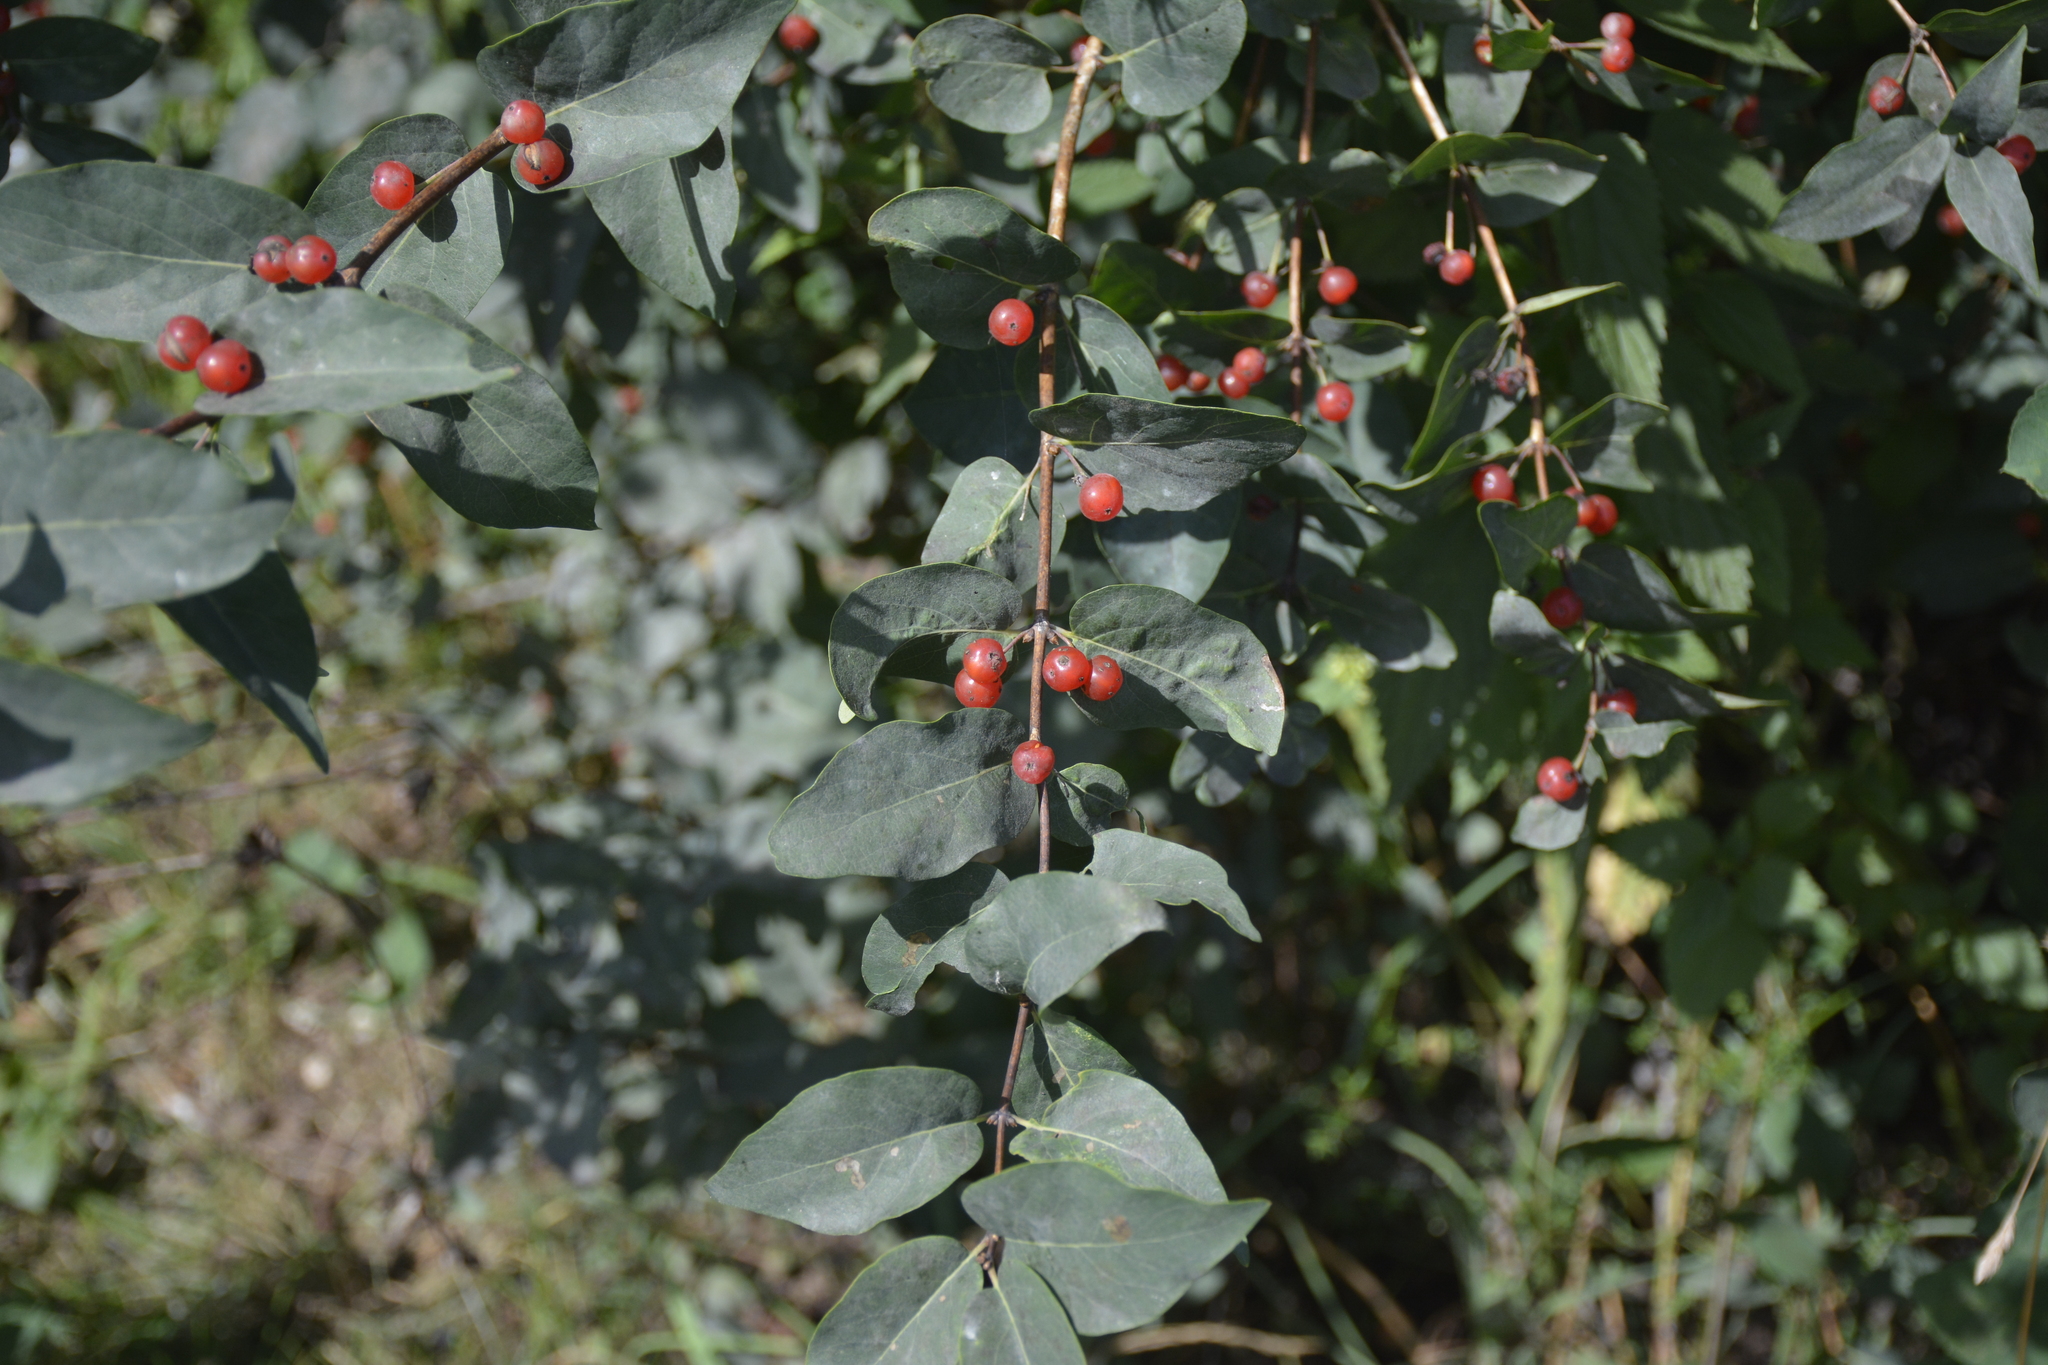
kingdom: Plantae
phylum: Tracheophyta
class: Magnoliopsida
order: Dipsacales
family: Caprifoliaceae
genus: Lonicera
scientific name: Lonicera tatarica
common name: Tatarian honeysuckle
